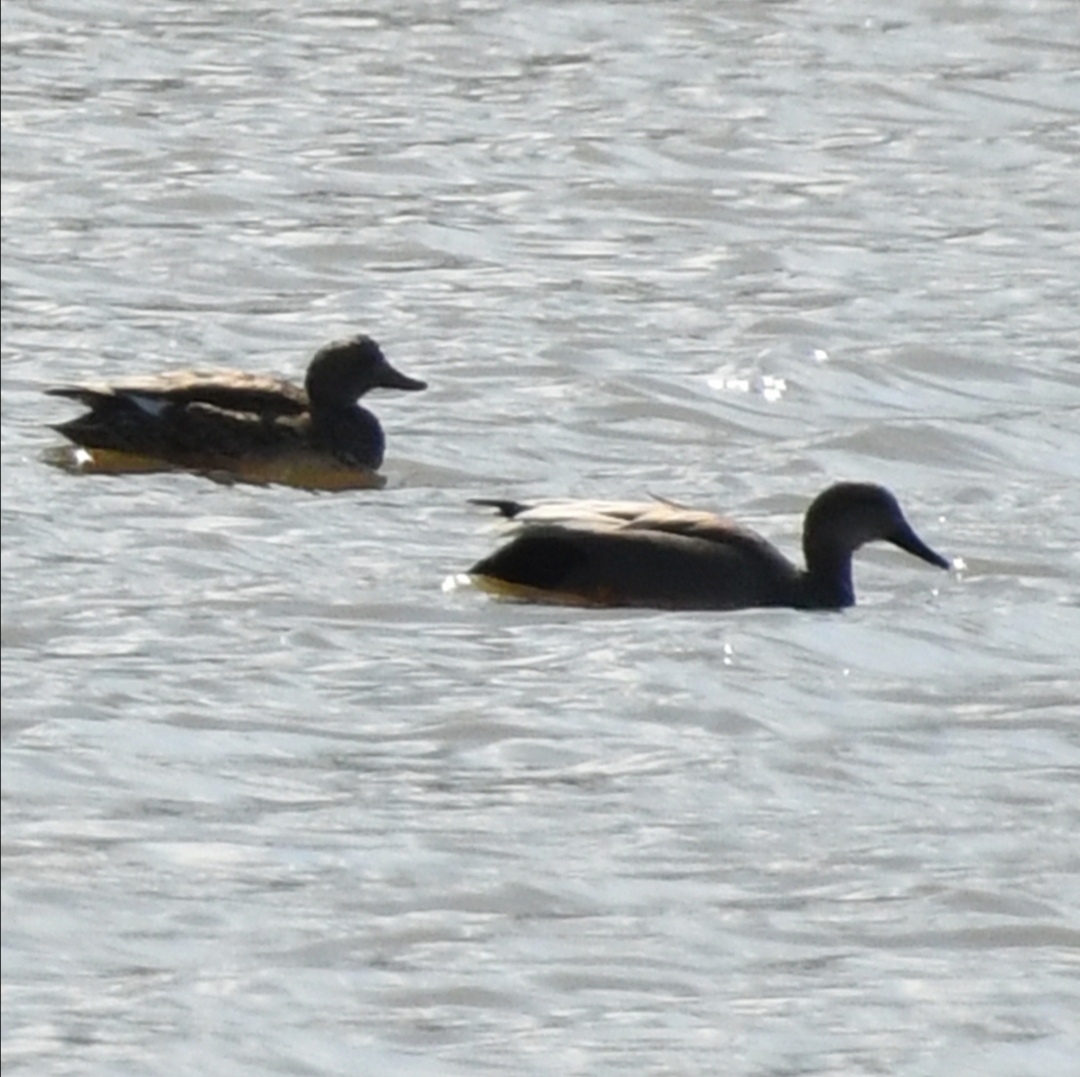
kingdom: Animalia
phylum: Chordata
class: Aves
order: Anseriformes
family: Anatidae
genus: Mareca
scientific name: Mareca strepera
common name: Gadwall
